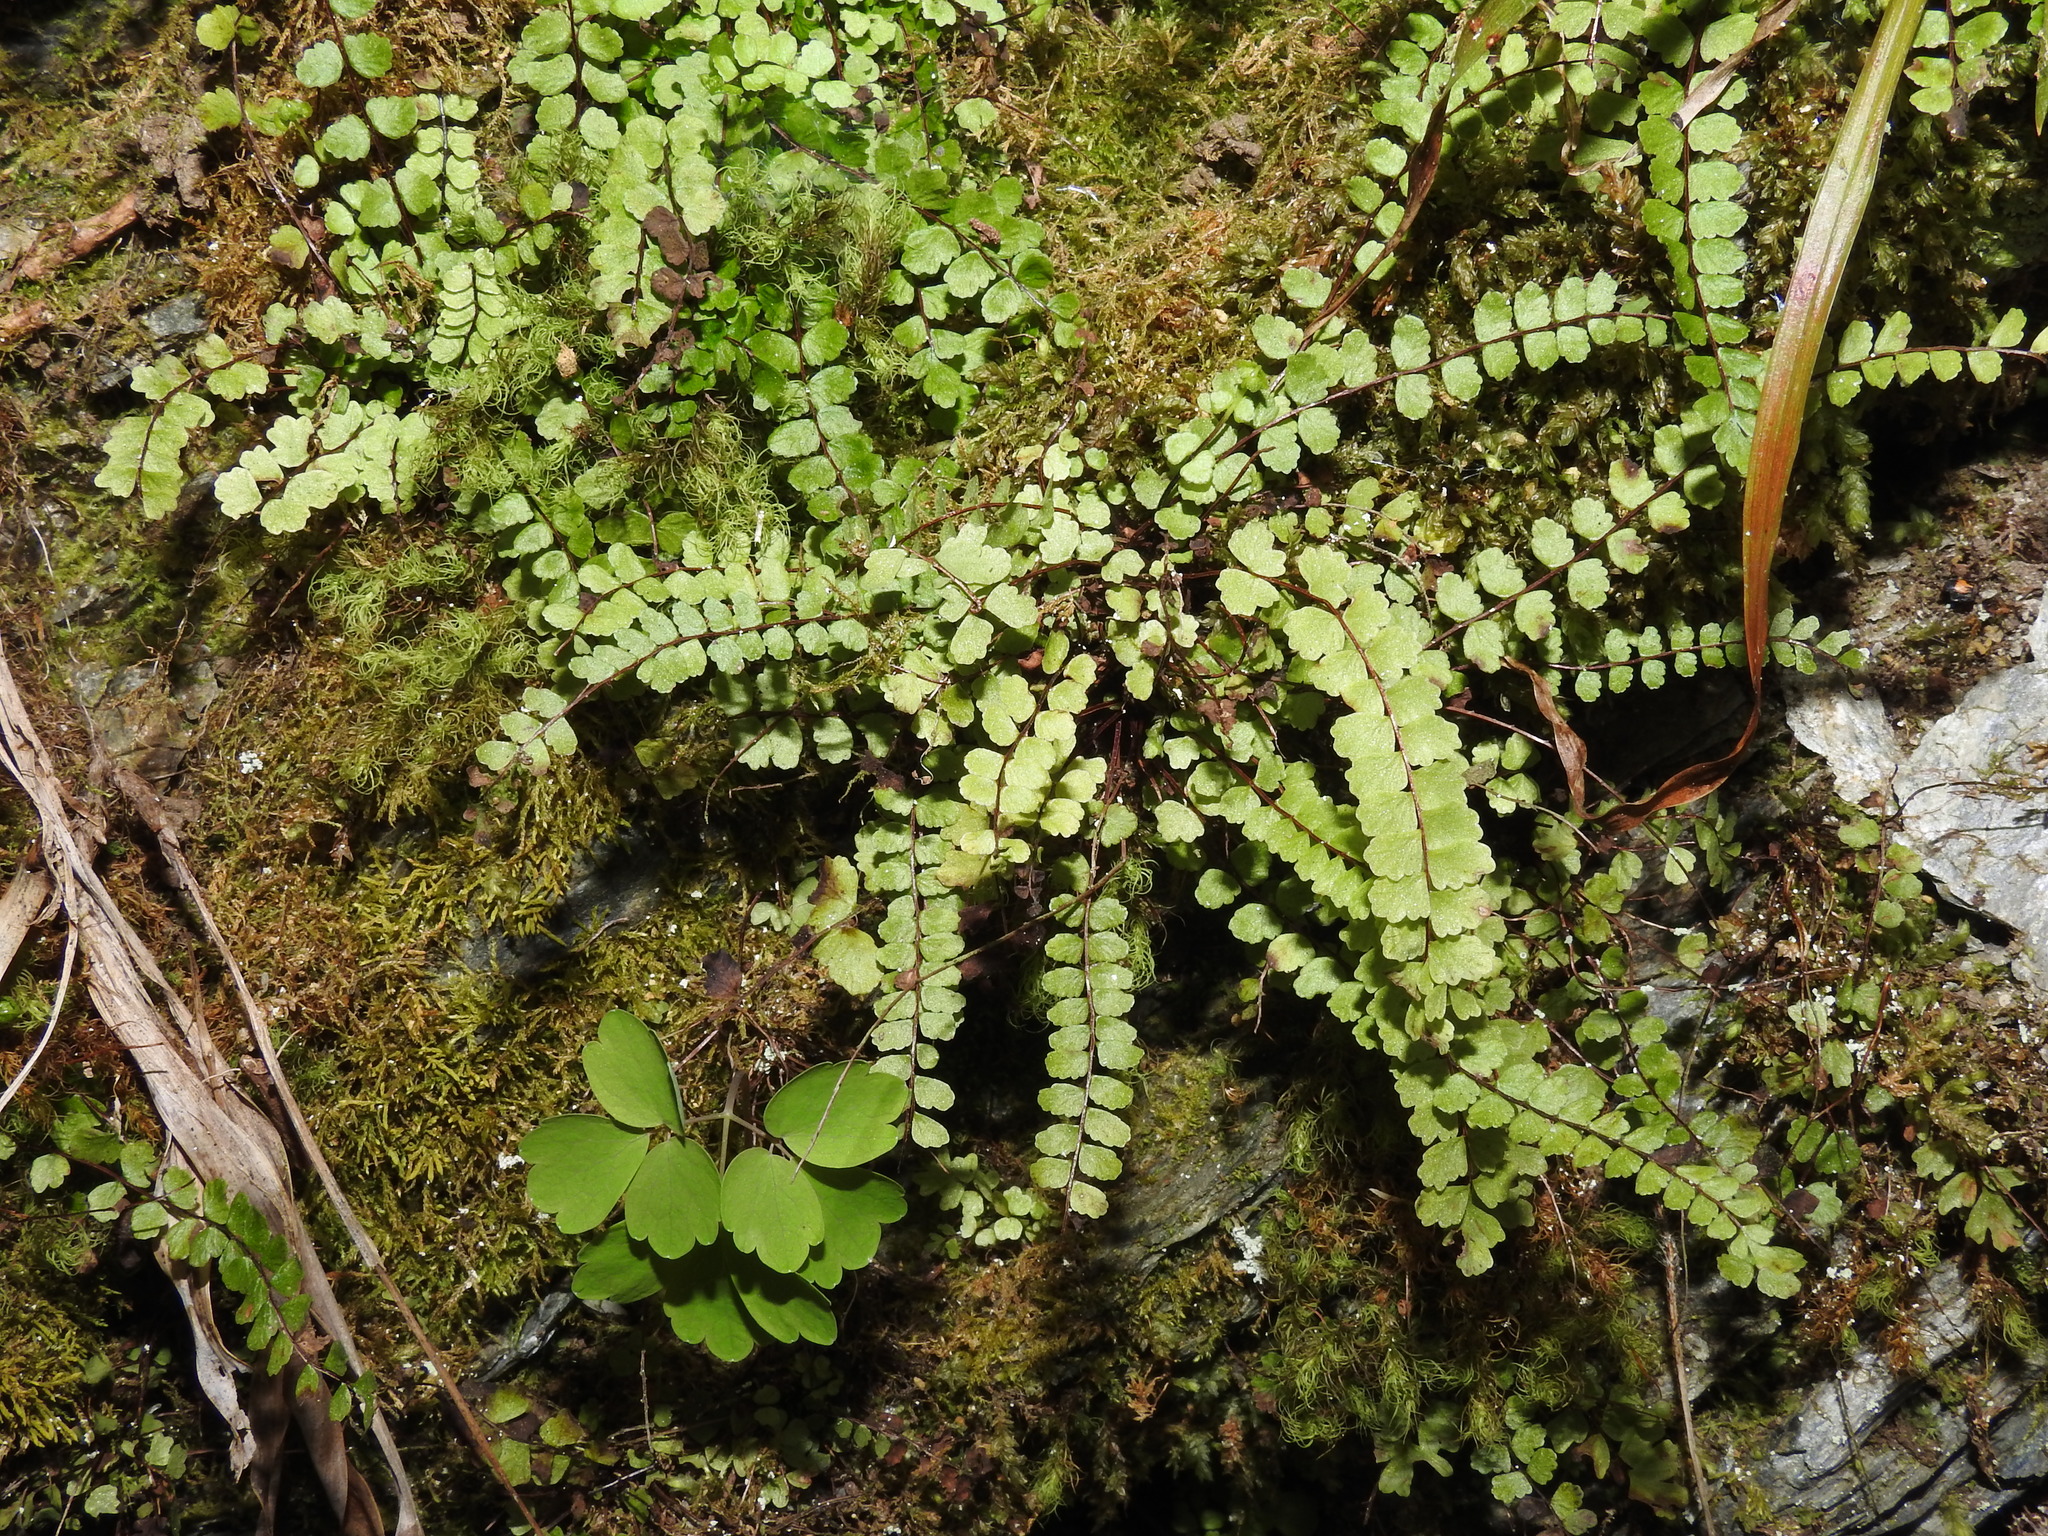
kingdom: Plantae
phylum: Tracheophyta
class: Polypodiopsida
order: Polypodiales
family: Aspleniaceae
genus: Asplenium
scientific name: Asplenium trichomanes
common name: Maidenhair spleenwort
